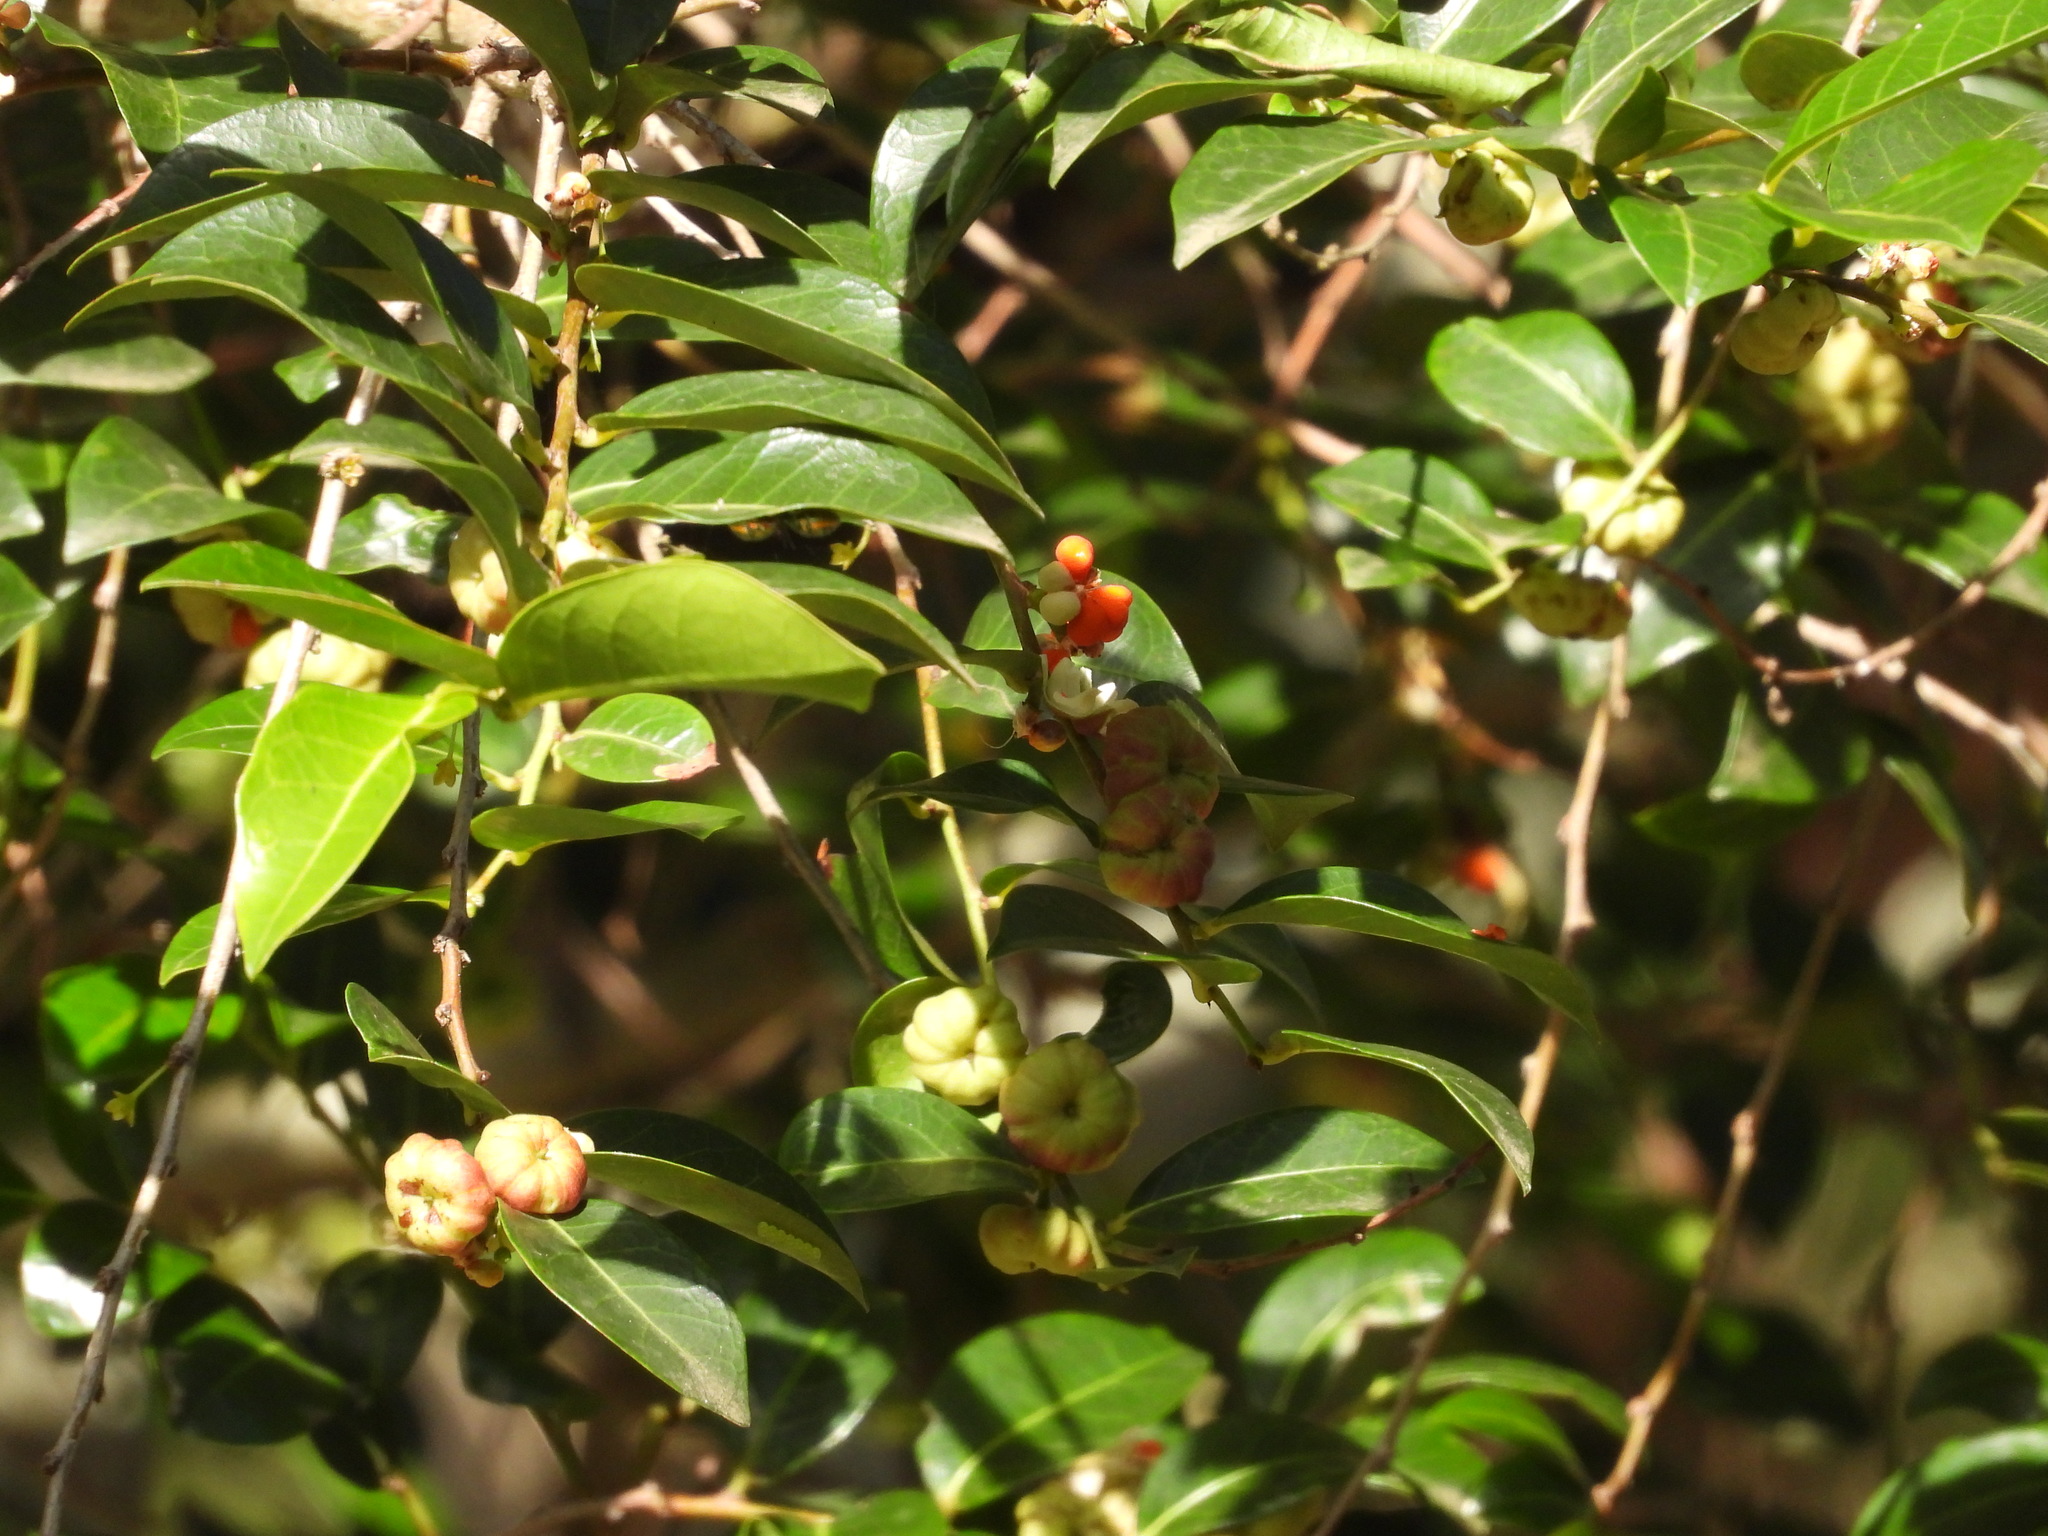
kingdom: Plantae
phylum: Tracheophyta
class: Magnoliopsida
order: Malpighiales
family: Phyllanthaceae
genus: Glochidion
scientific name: Glochidion ferdinandi
